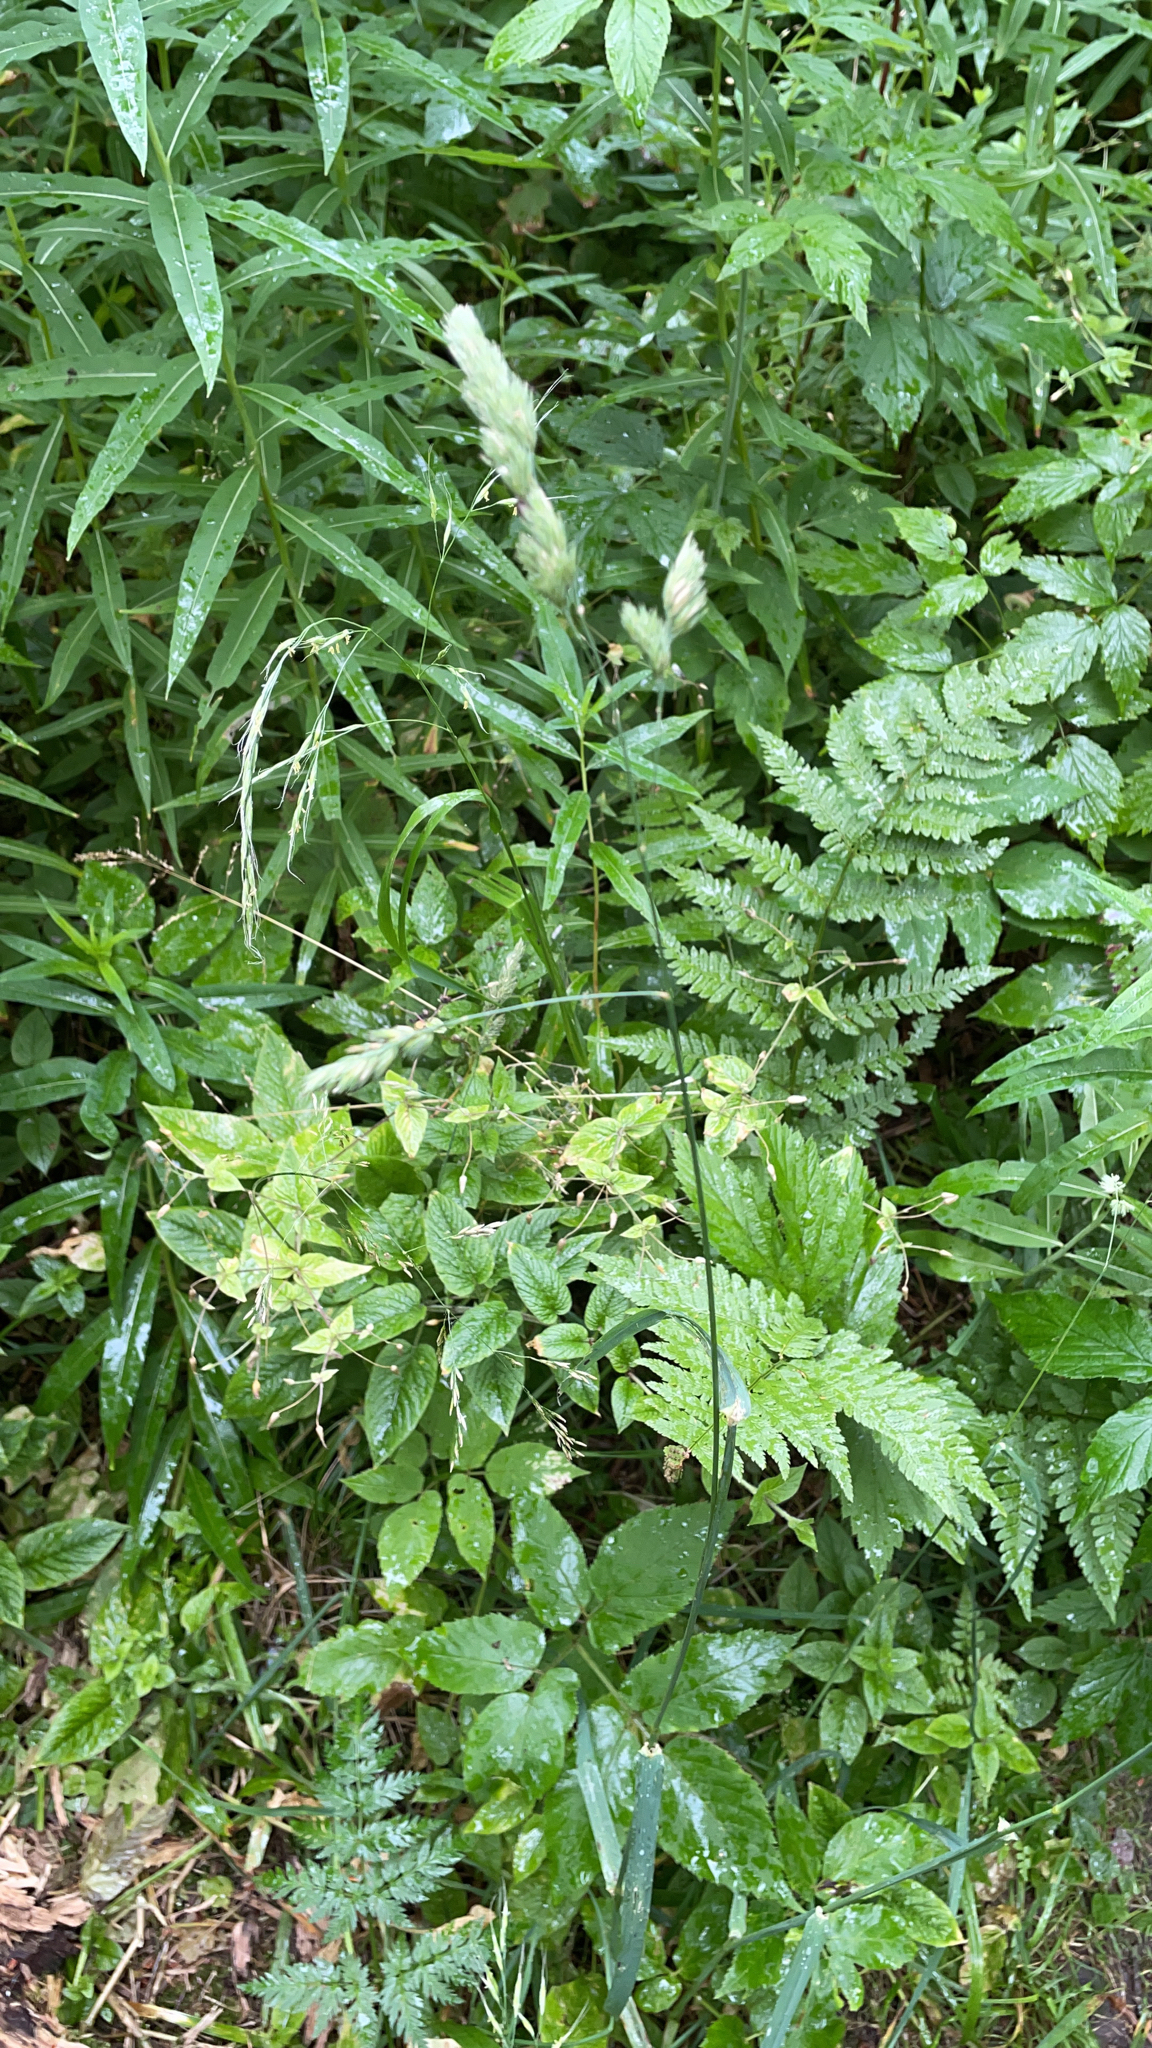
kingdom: Plantae
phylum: Tracheophyta
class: Liliopsida
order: Poales
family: Poaceae
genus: Dactylis
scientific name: Dactylis glomerata
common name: Orchardgrass
